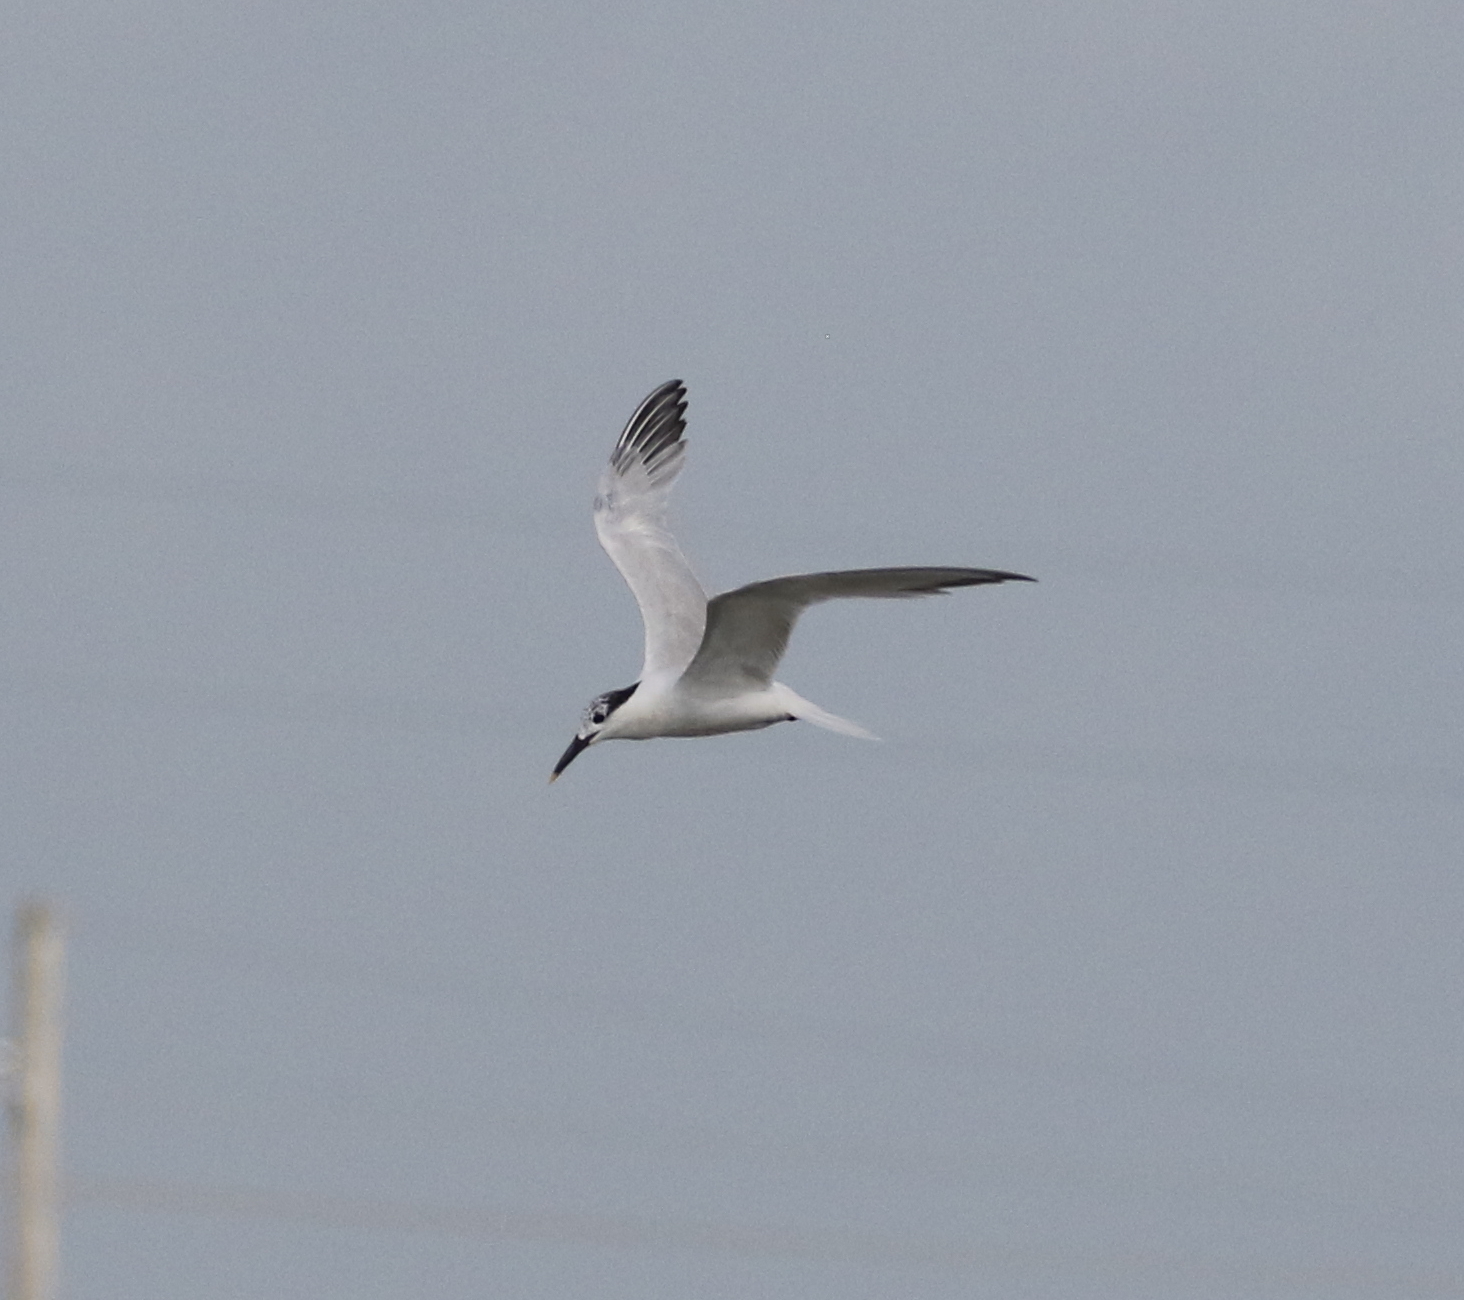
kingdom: Animalia
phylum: Chordata
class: Aves
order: Charadriiformes
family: Laridae
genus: Thalasseus
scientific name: Thalasseus sandvicensis
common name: Sandwich tern
